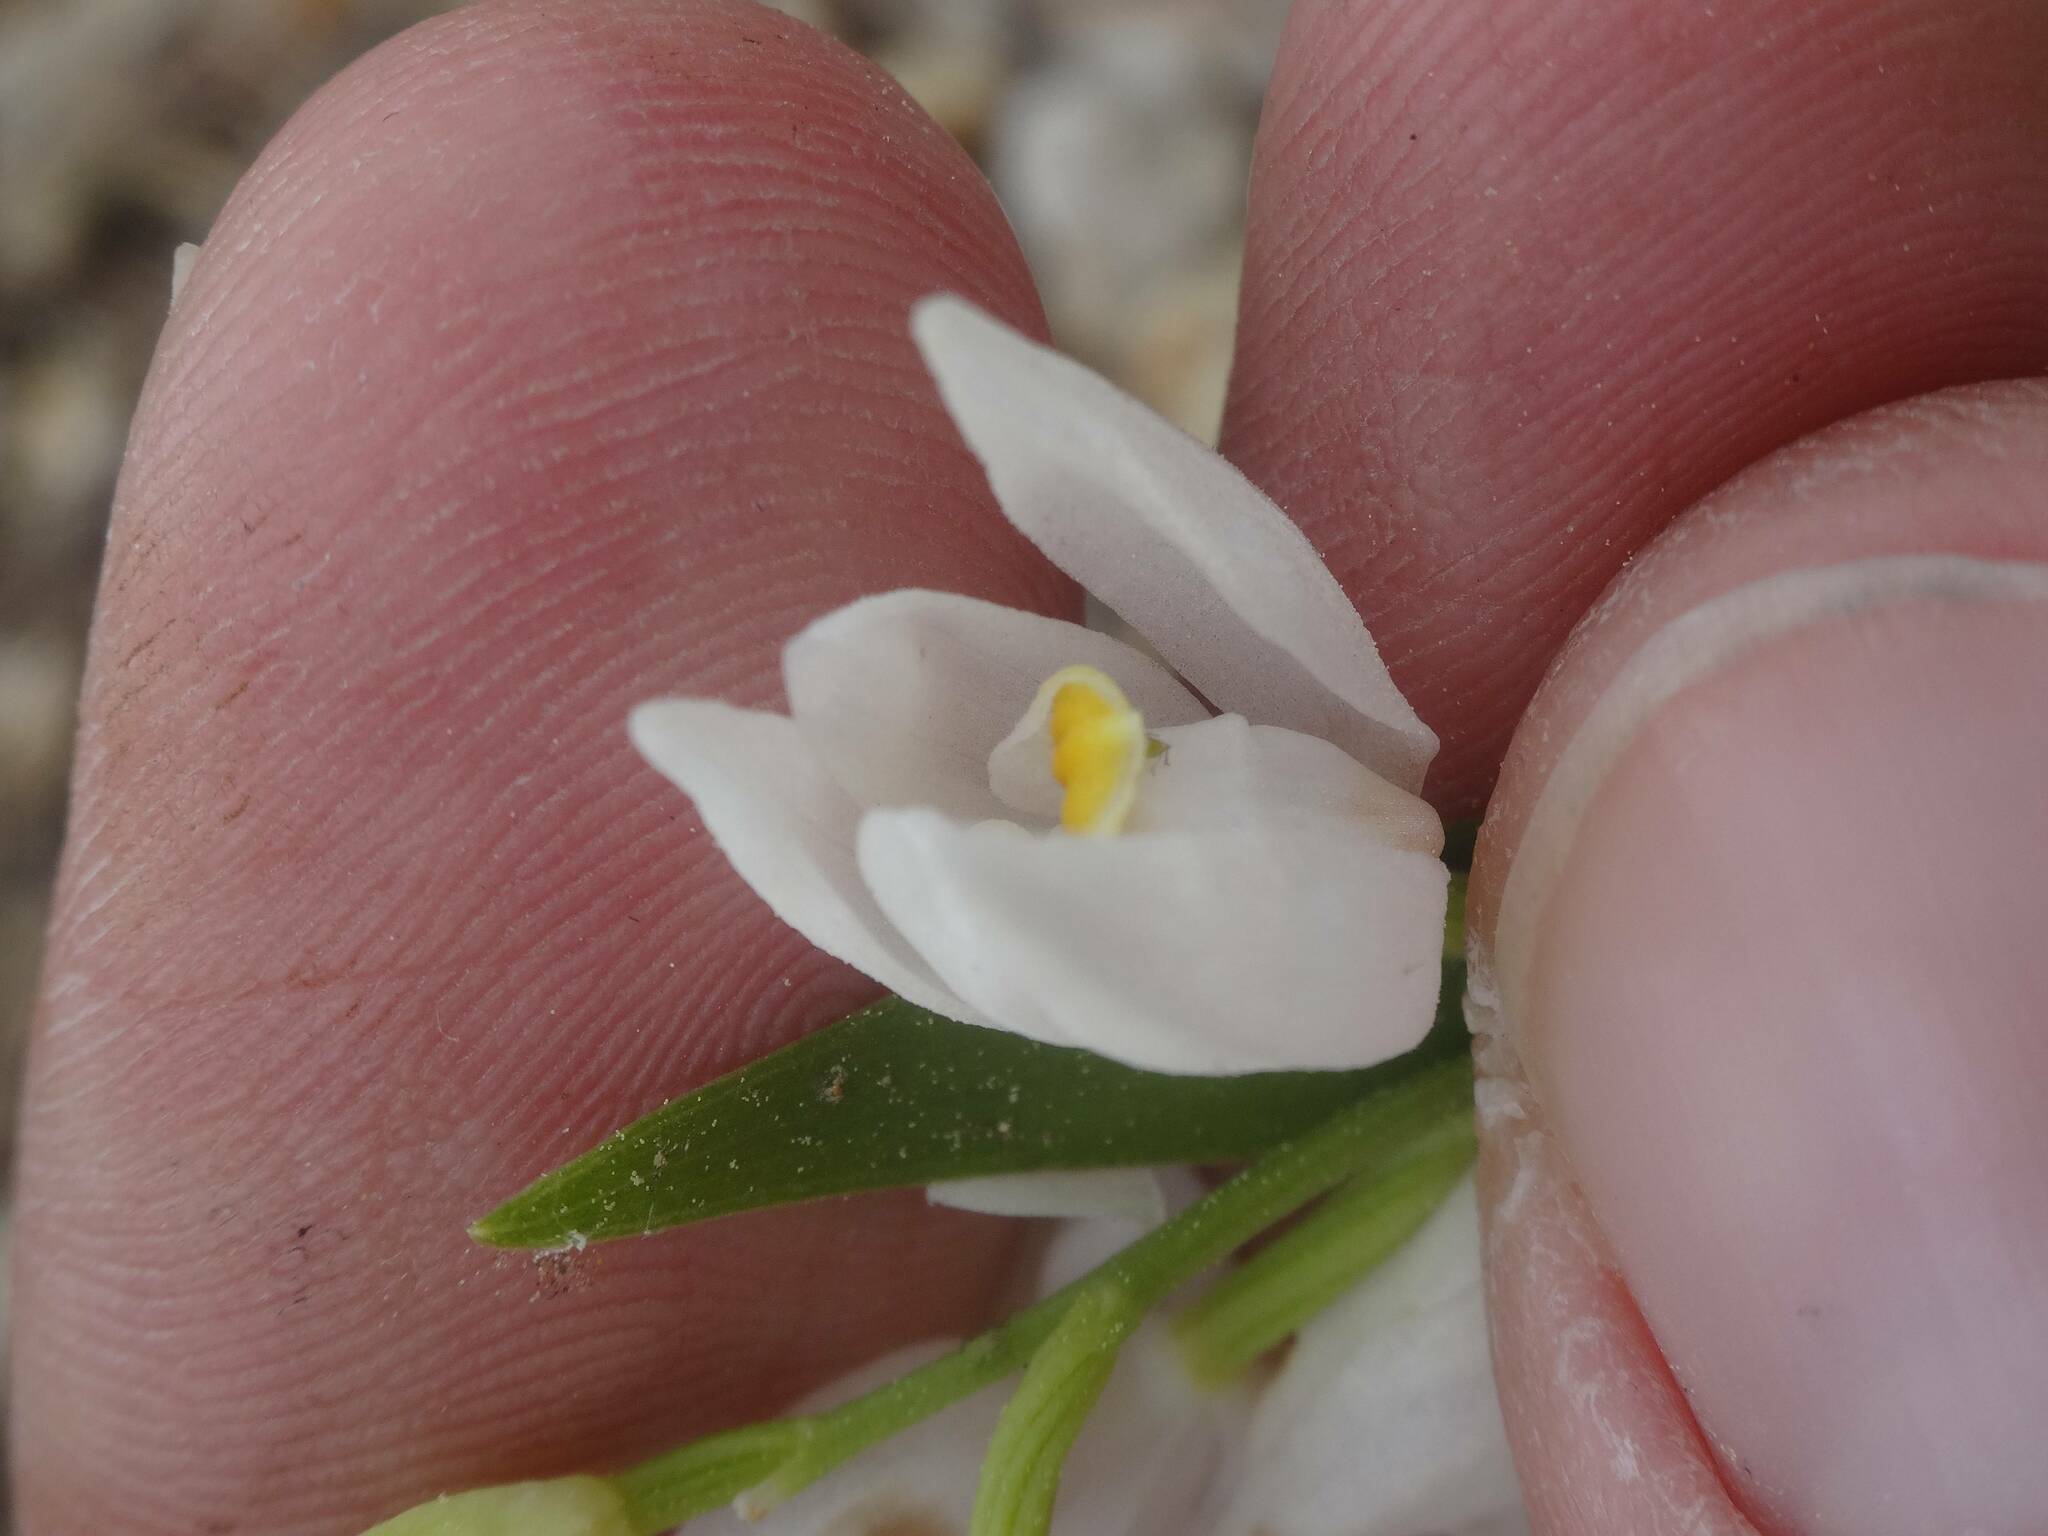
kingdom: Plantae
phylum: Tracheophyta
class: Liliopsida
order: Asparagales
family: Orchidaceae
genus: Cephalanthera
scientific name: Cephalanthera longifolia
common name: Narrow-leaved helleborine
